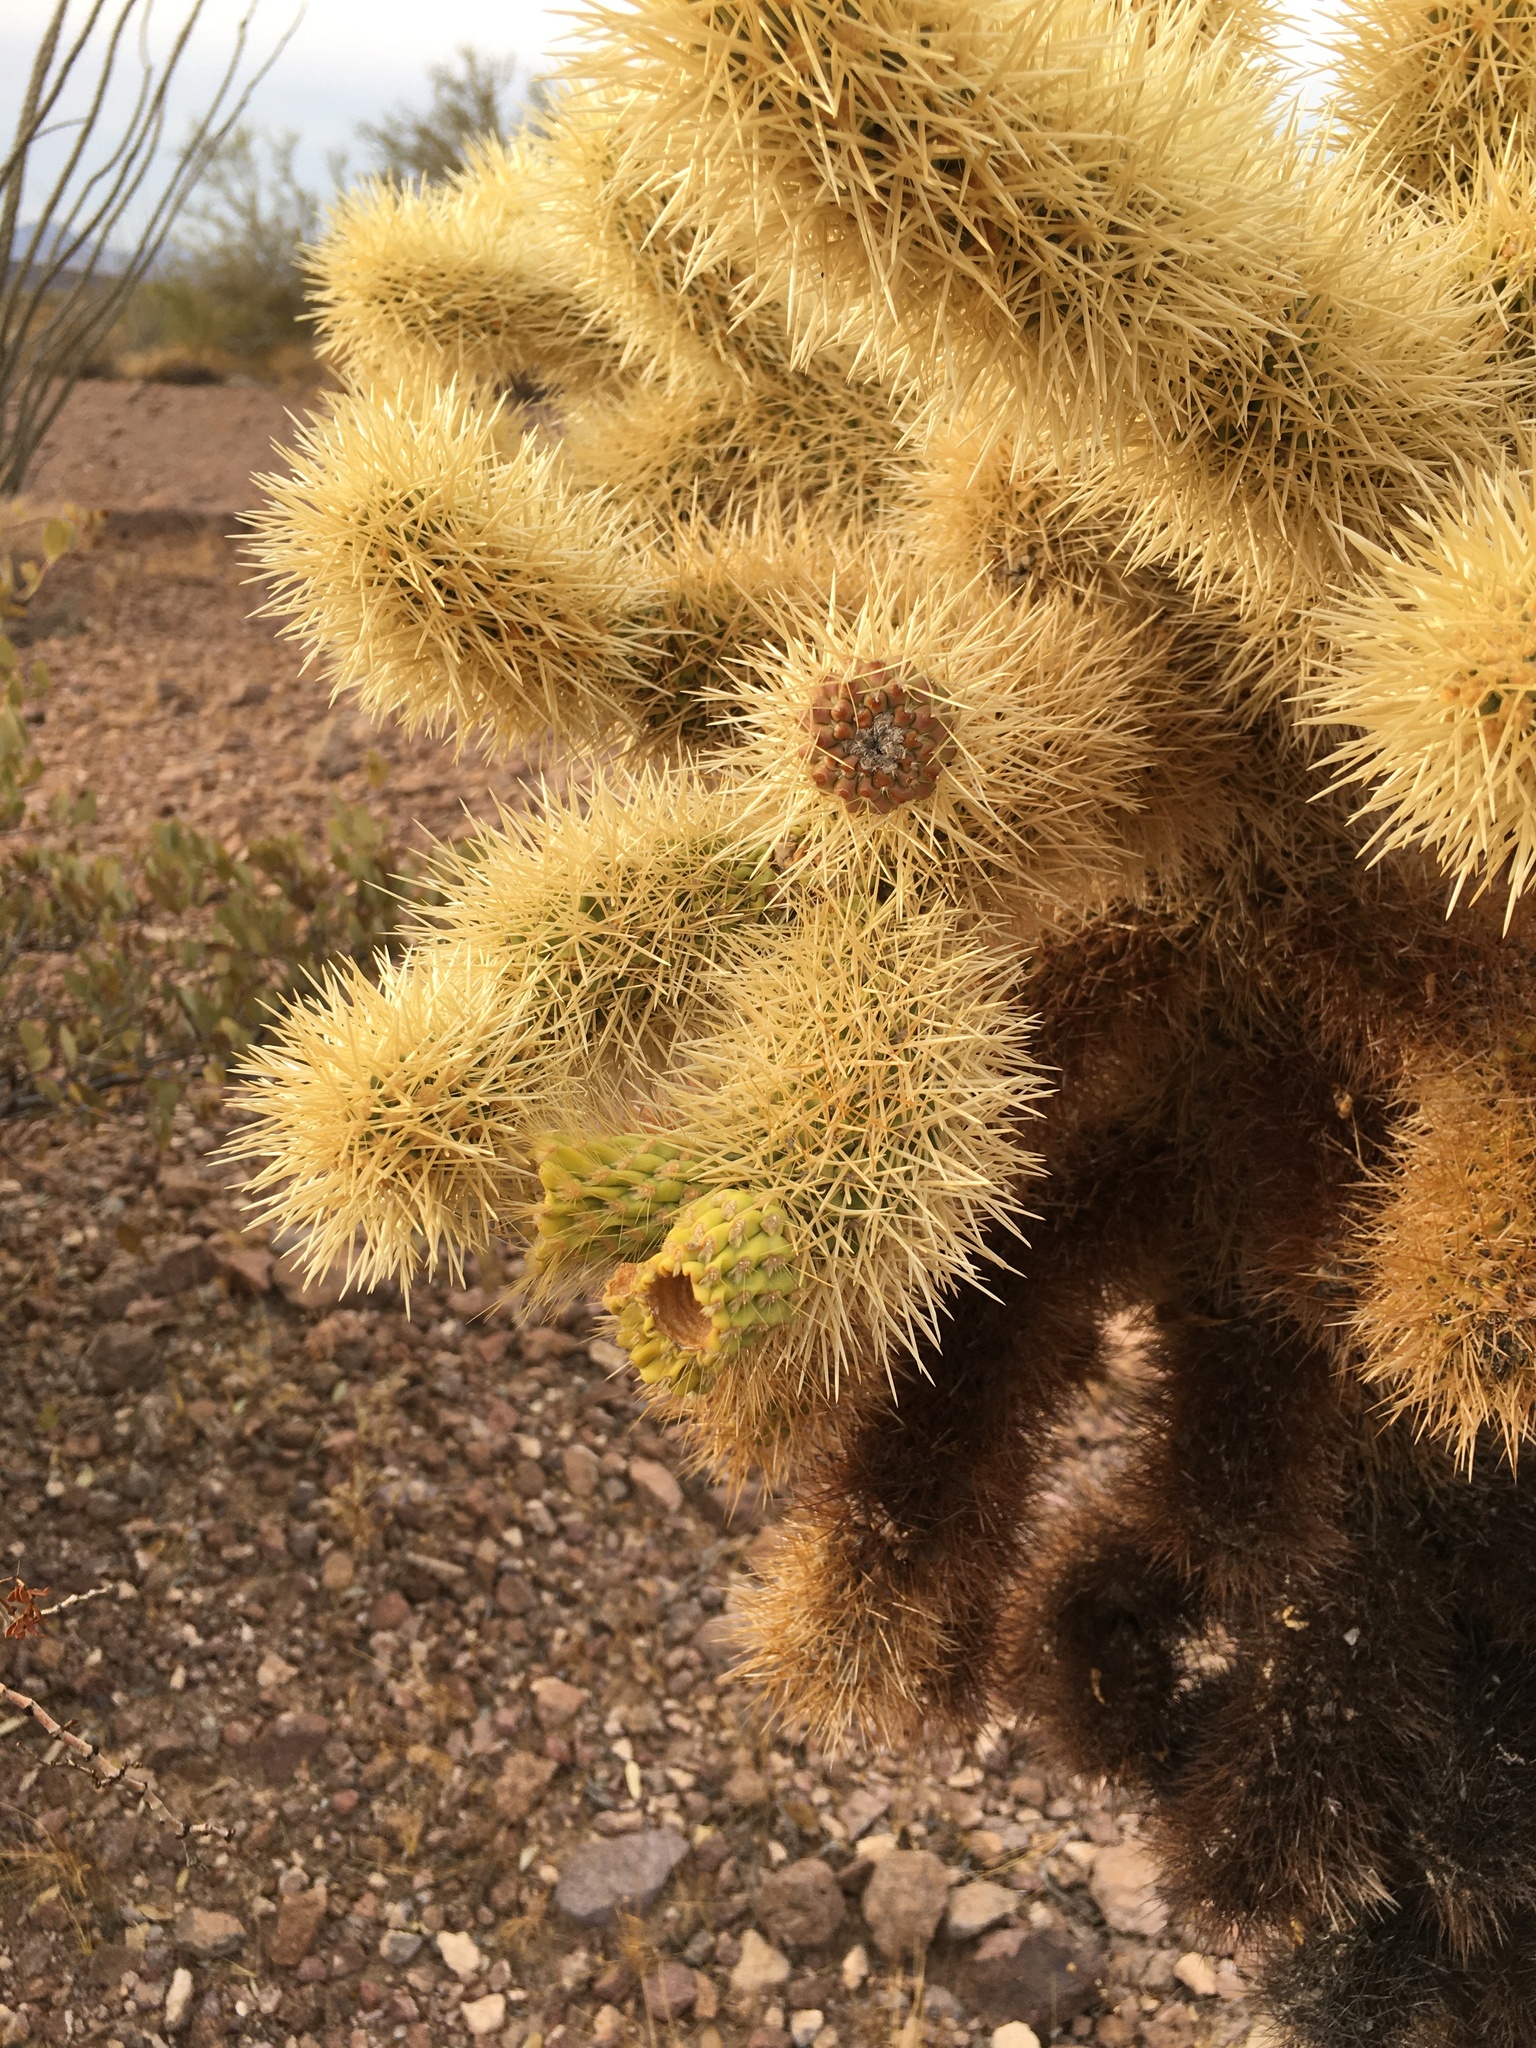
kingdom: Plantae
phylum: Tracheophyta
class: Magnoliopsida
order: Caryophyllales
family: Cactaceae
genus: Cylindropuntia
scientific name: Cylindropuntia fosbergii
